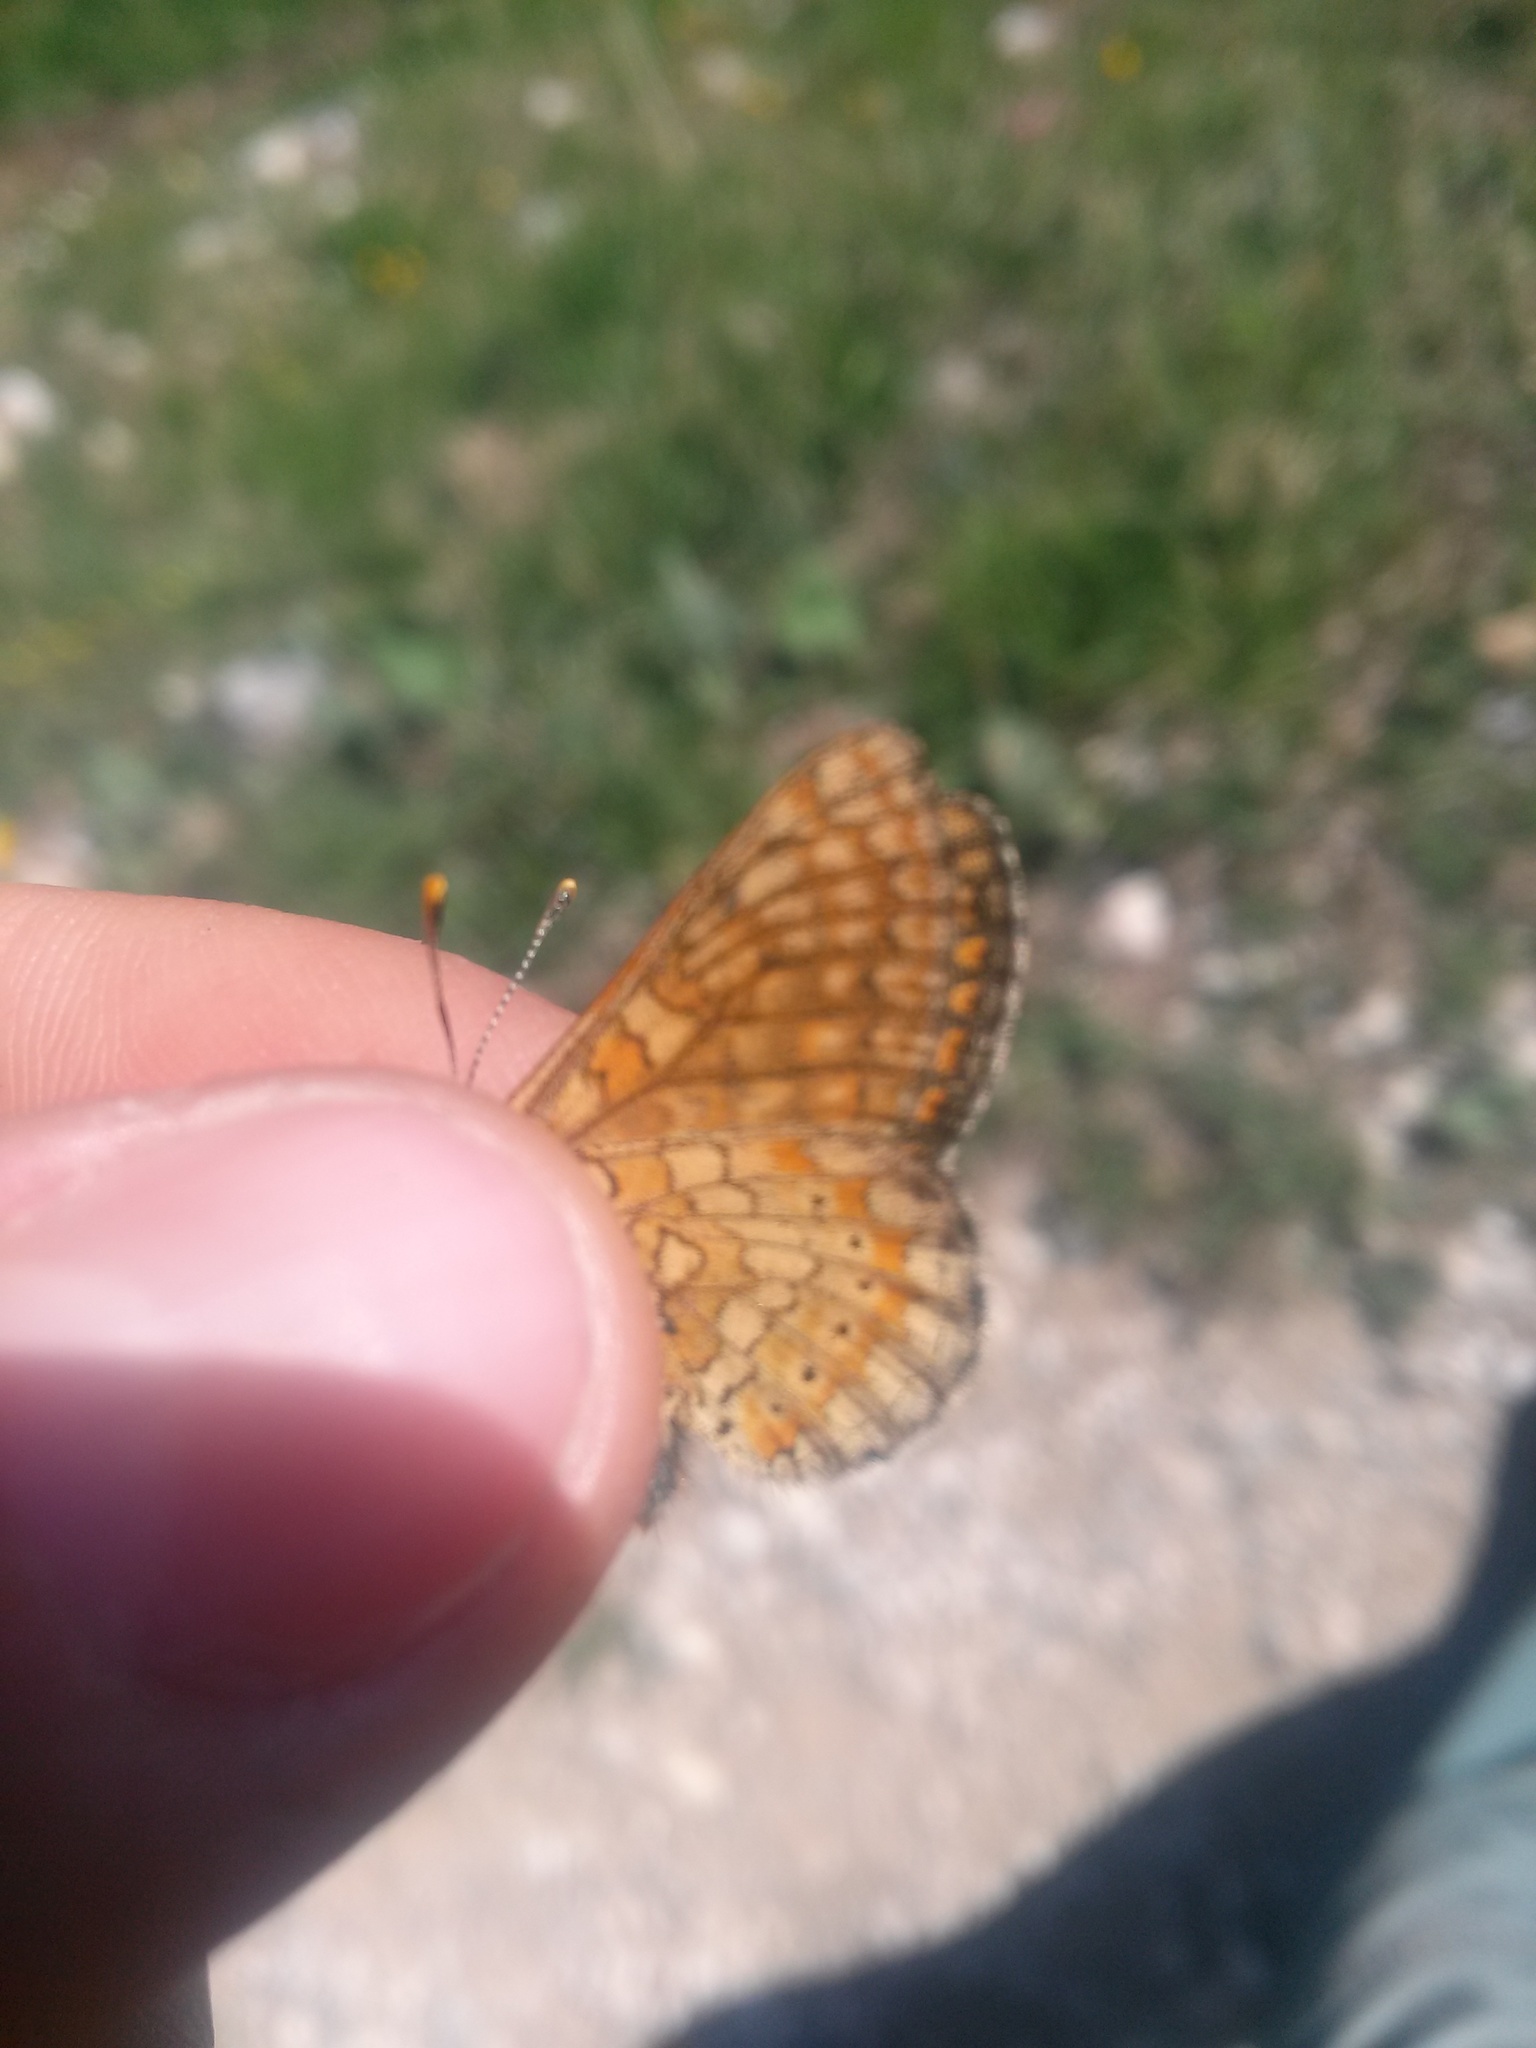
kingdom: Animalia
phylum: Arthropoda
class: Insecta
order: Lepidoptera
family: Nymphalidae
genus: Euphydryas
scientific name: Euphydryas aurinia
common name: Marsh fritillary
